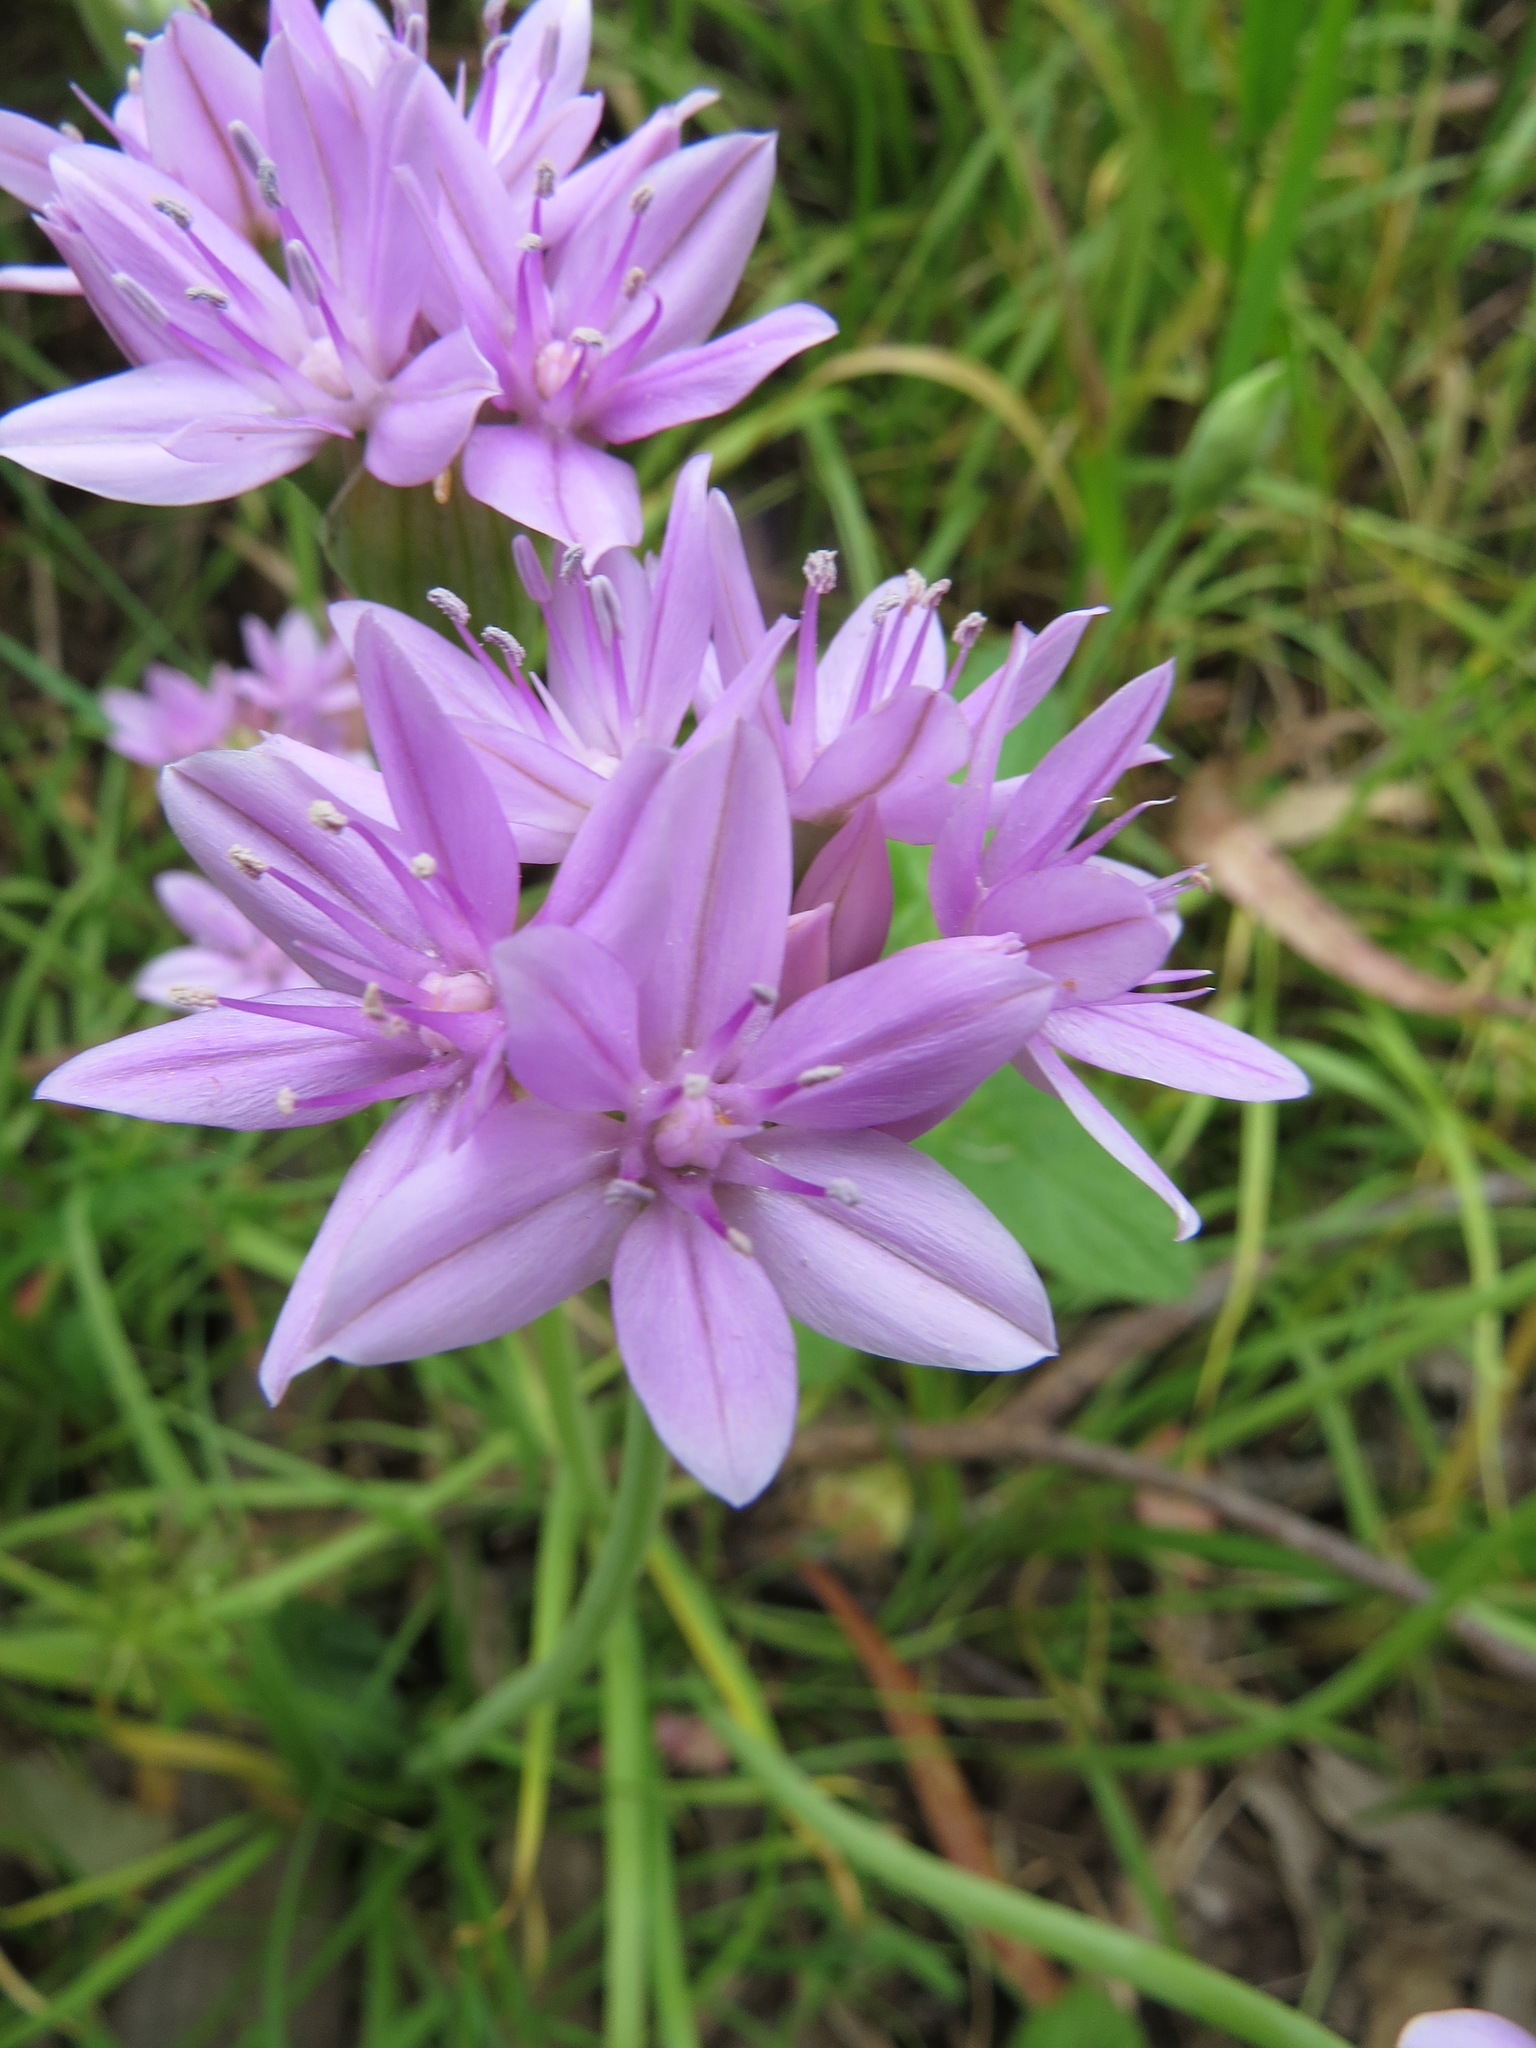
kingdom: Plantae
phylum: Tracheophyta
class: Liliopsida
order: Asparagales
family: Amaryllidaceae
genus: Allium
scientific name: Allium unifolium
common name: American garlic
